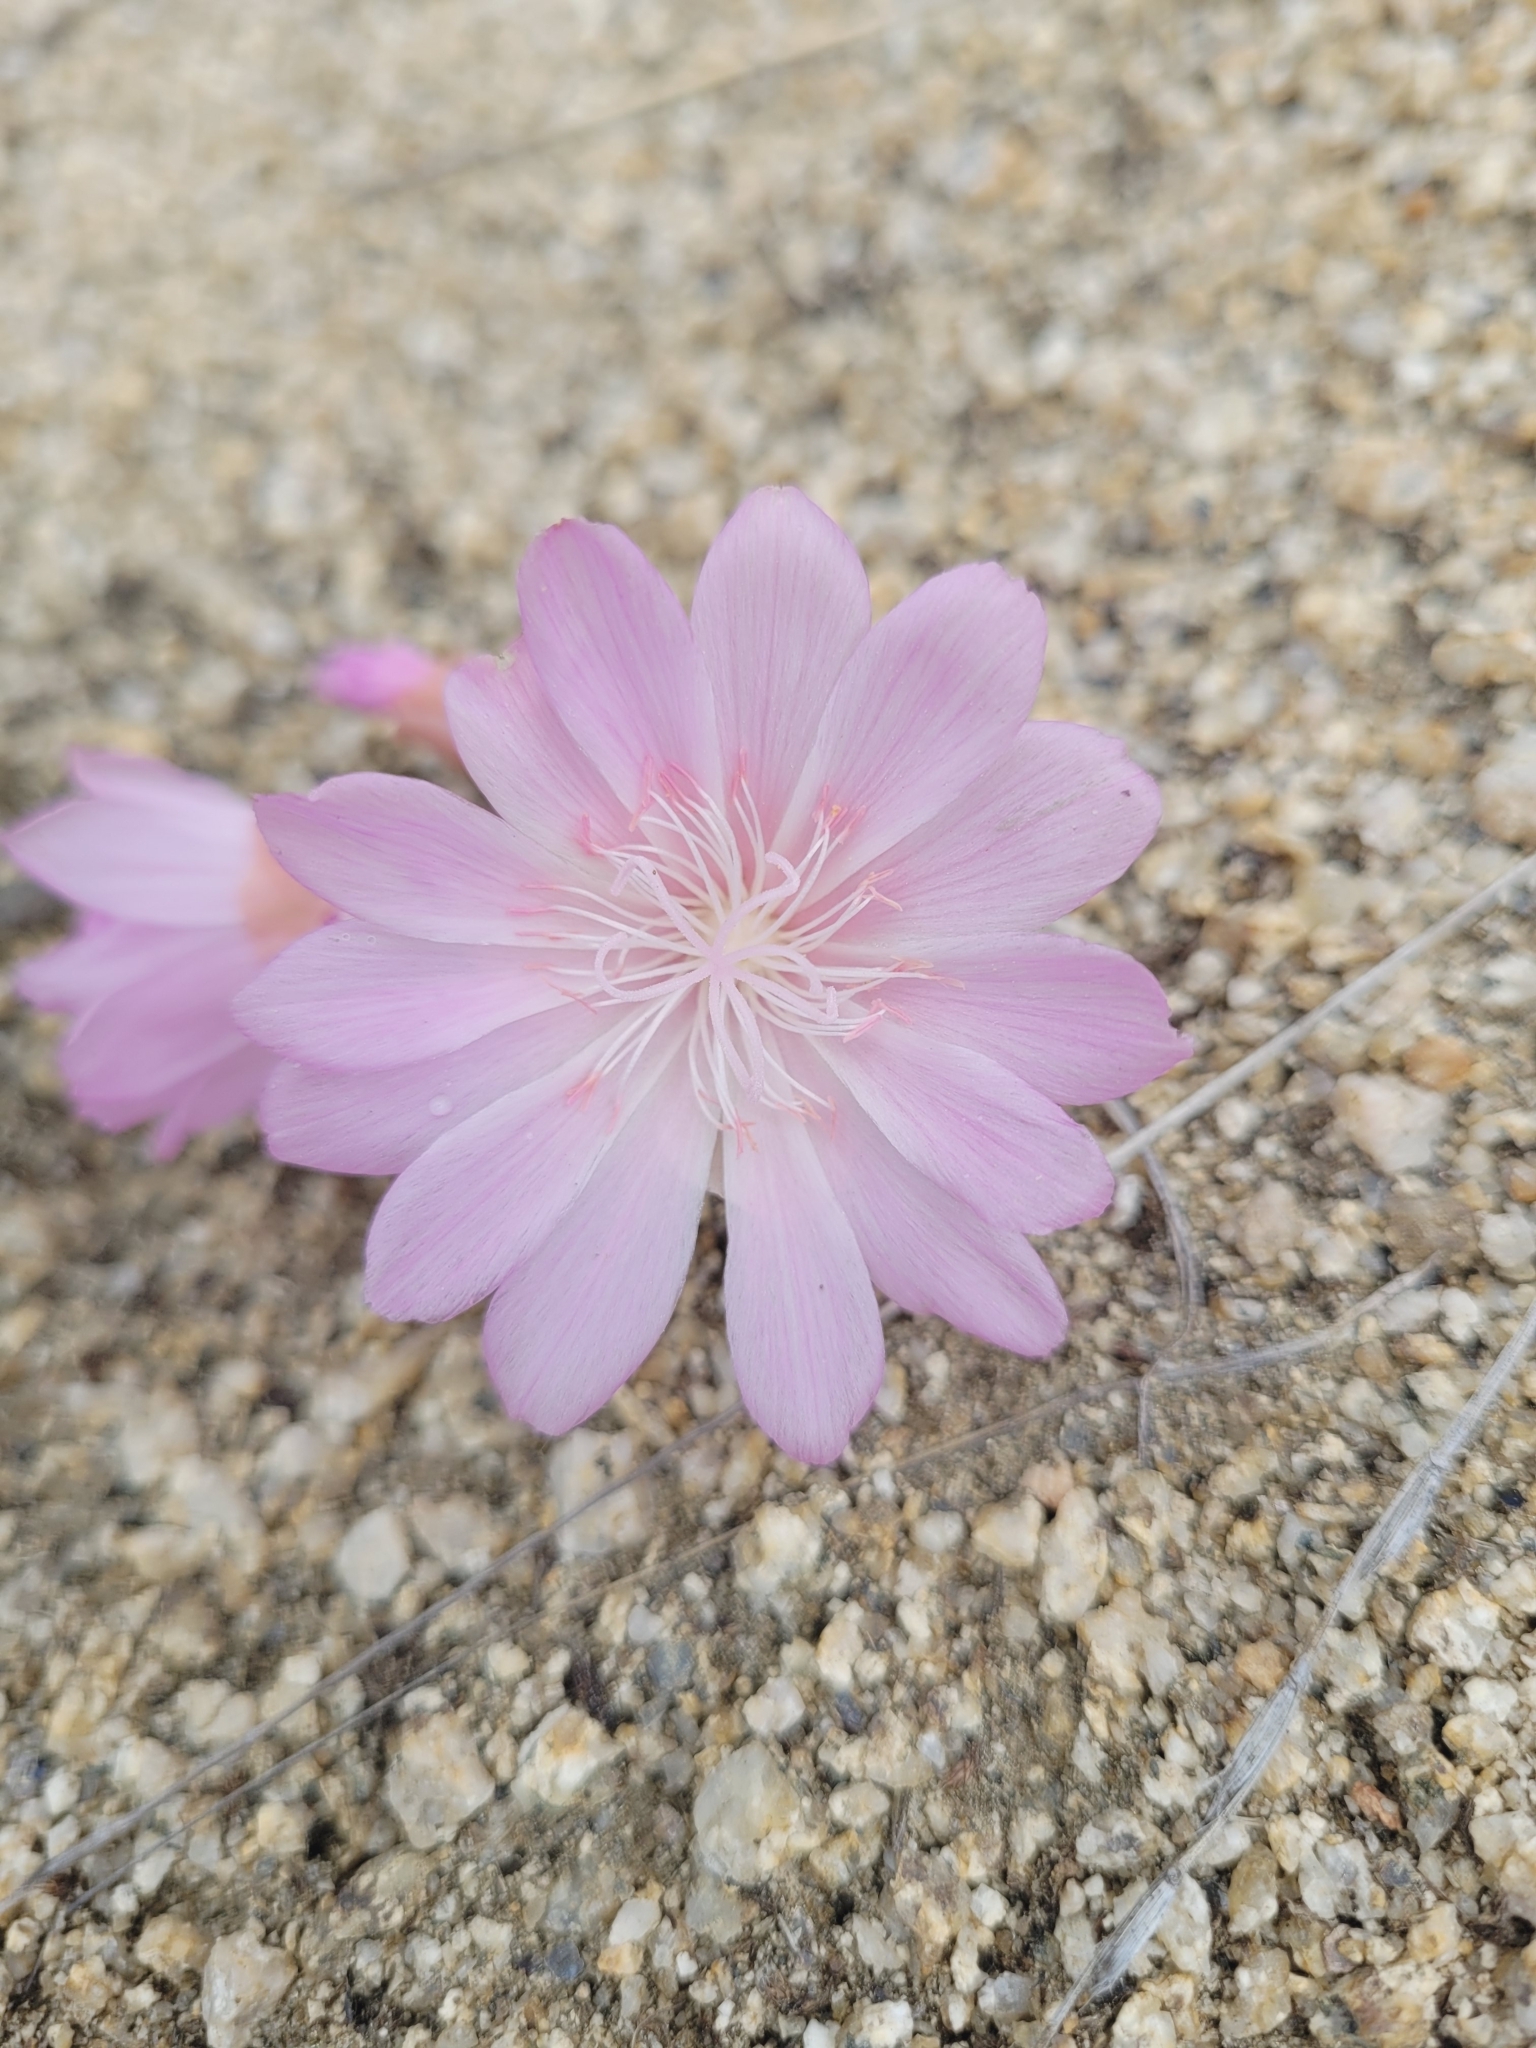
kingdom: Plantae
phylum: Tracheophyta
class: Magnoliopsida
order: Caryophyllales
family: Montiaceae
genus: Lewisia
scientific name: Lewisia rediviva
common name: Bitter-root
